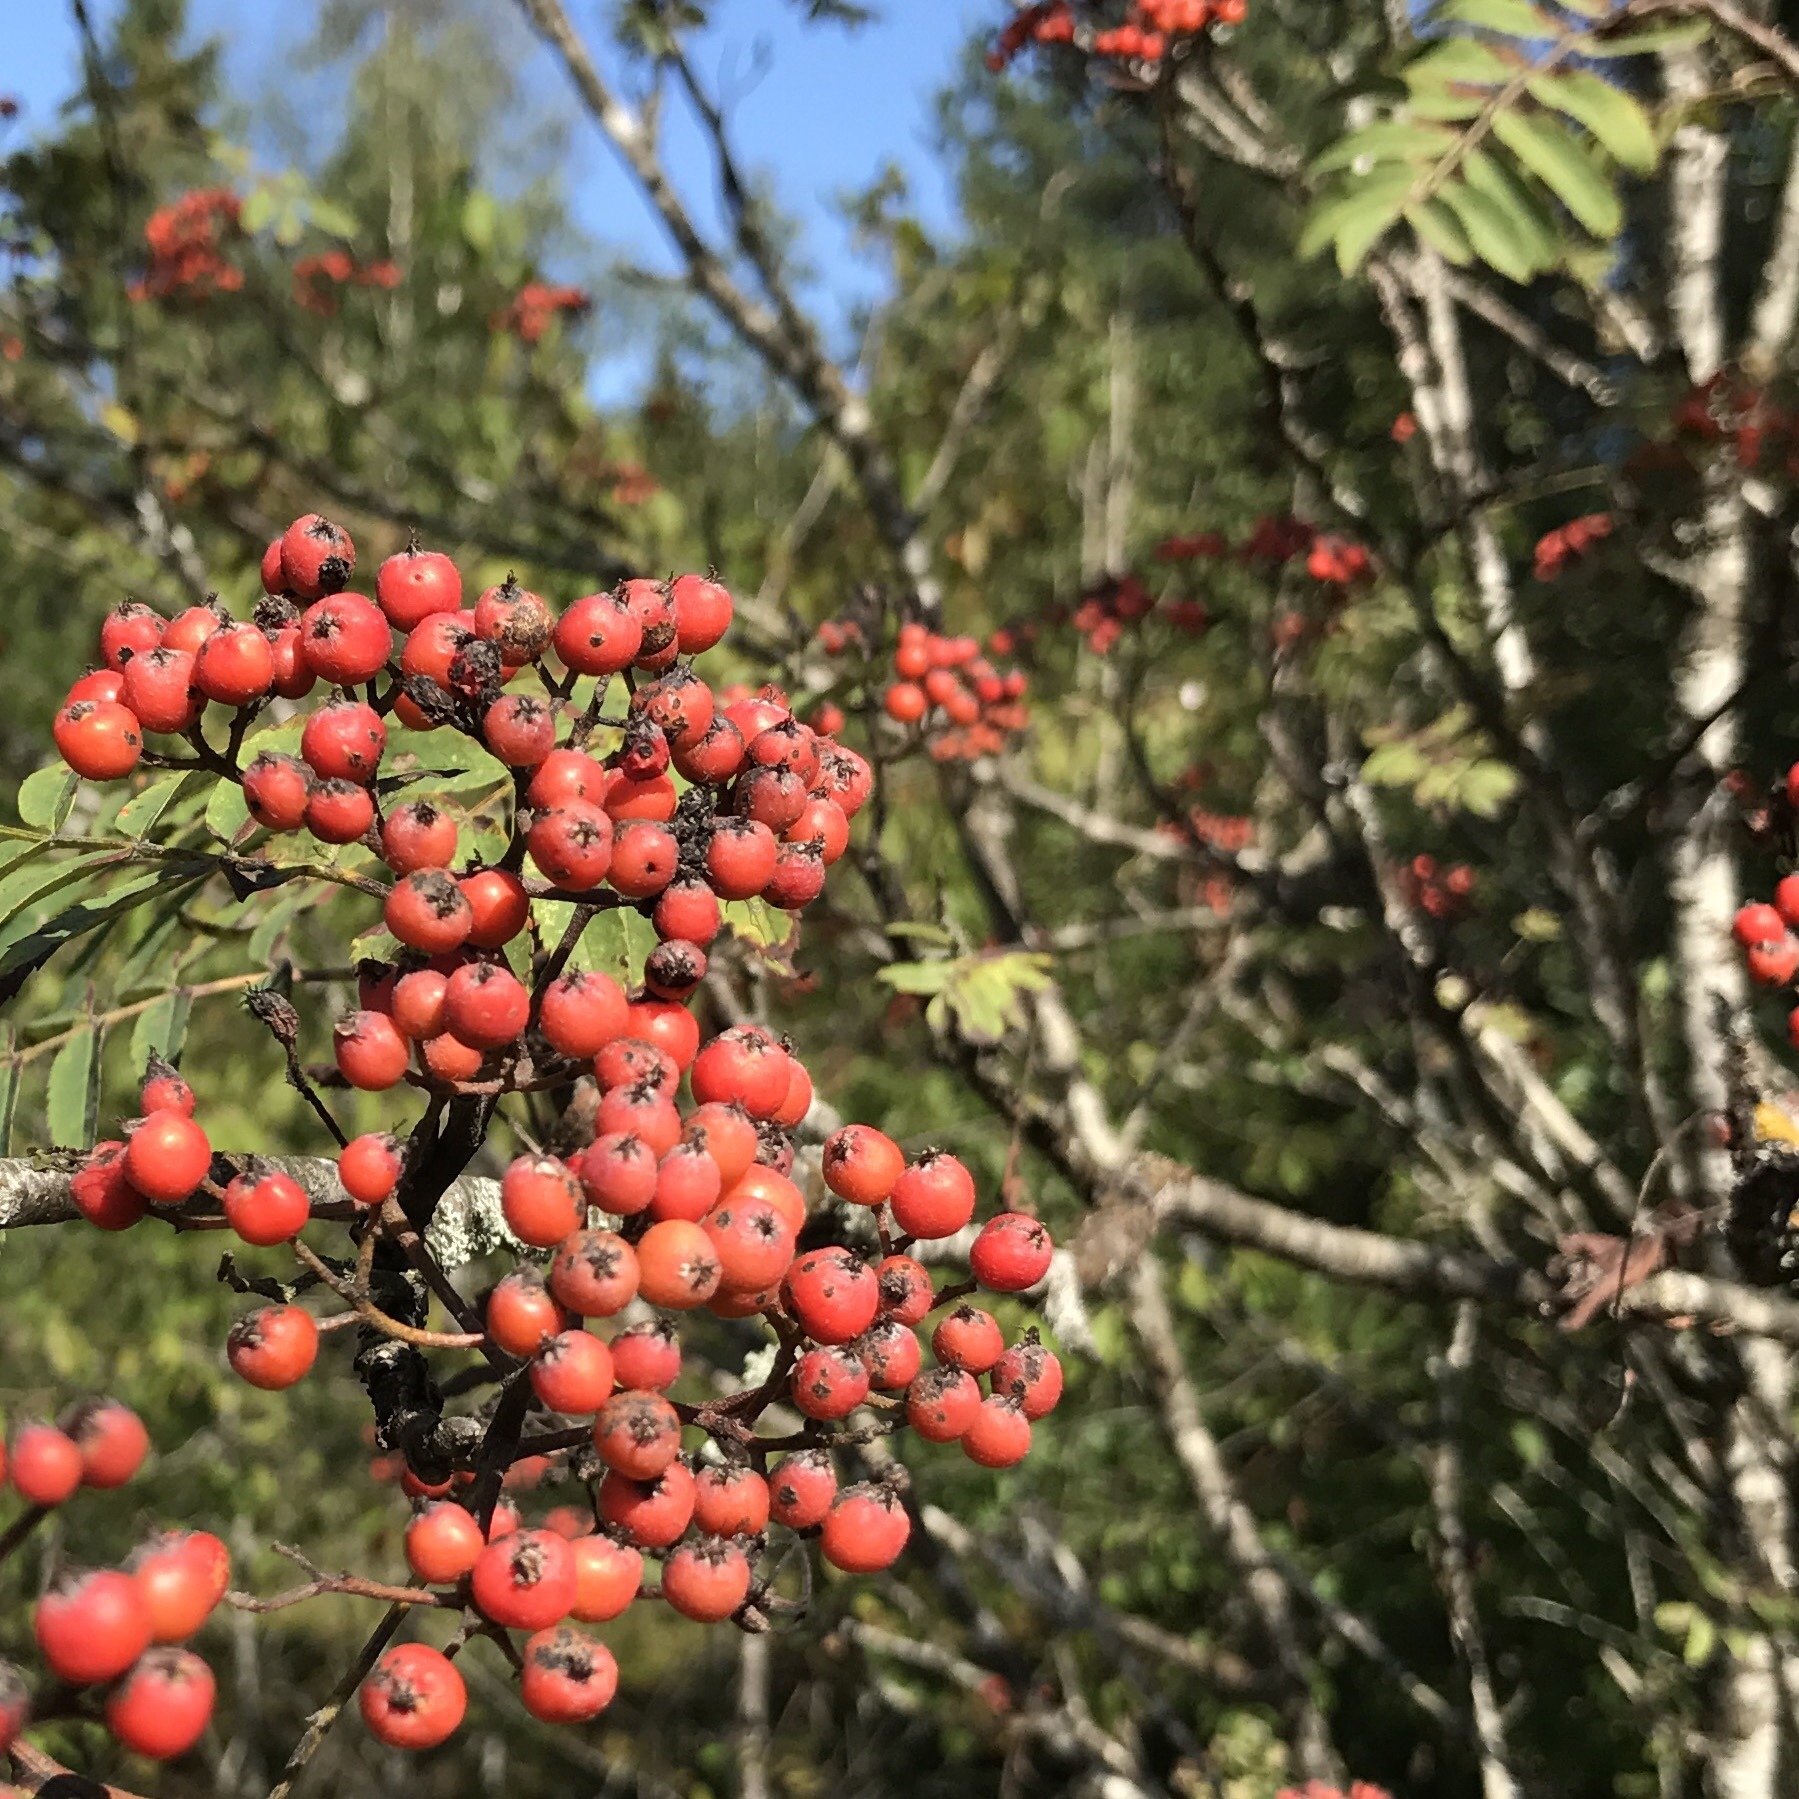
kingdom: Plantae
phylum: Tracheophyta
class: Magnoliopsida
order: Rosales
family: Rosaceae
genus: Sorbus
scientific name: Sorbus aucuparia
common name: Rowan
